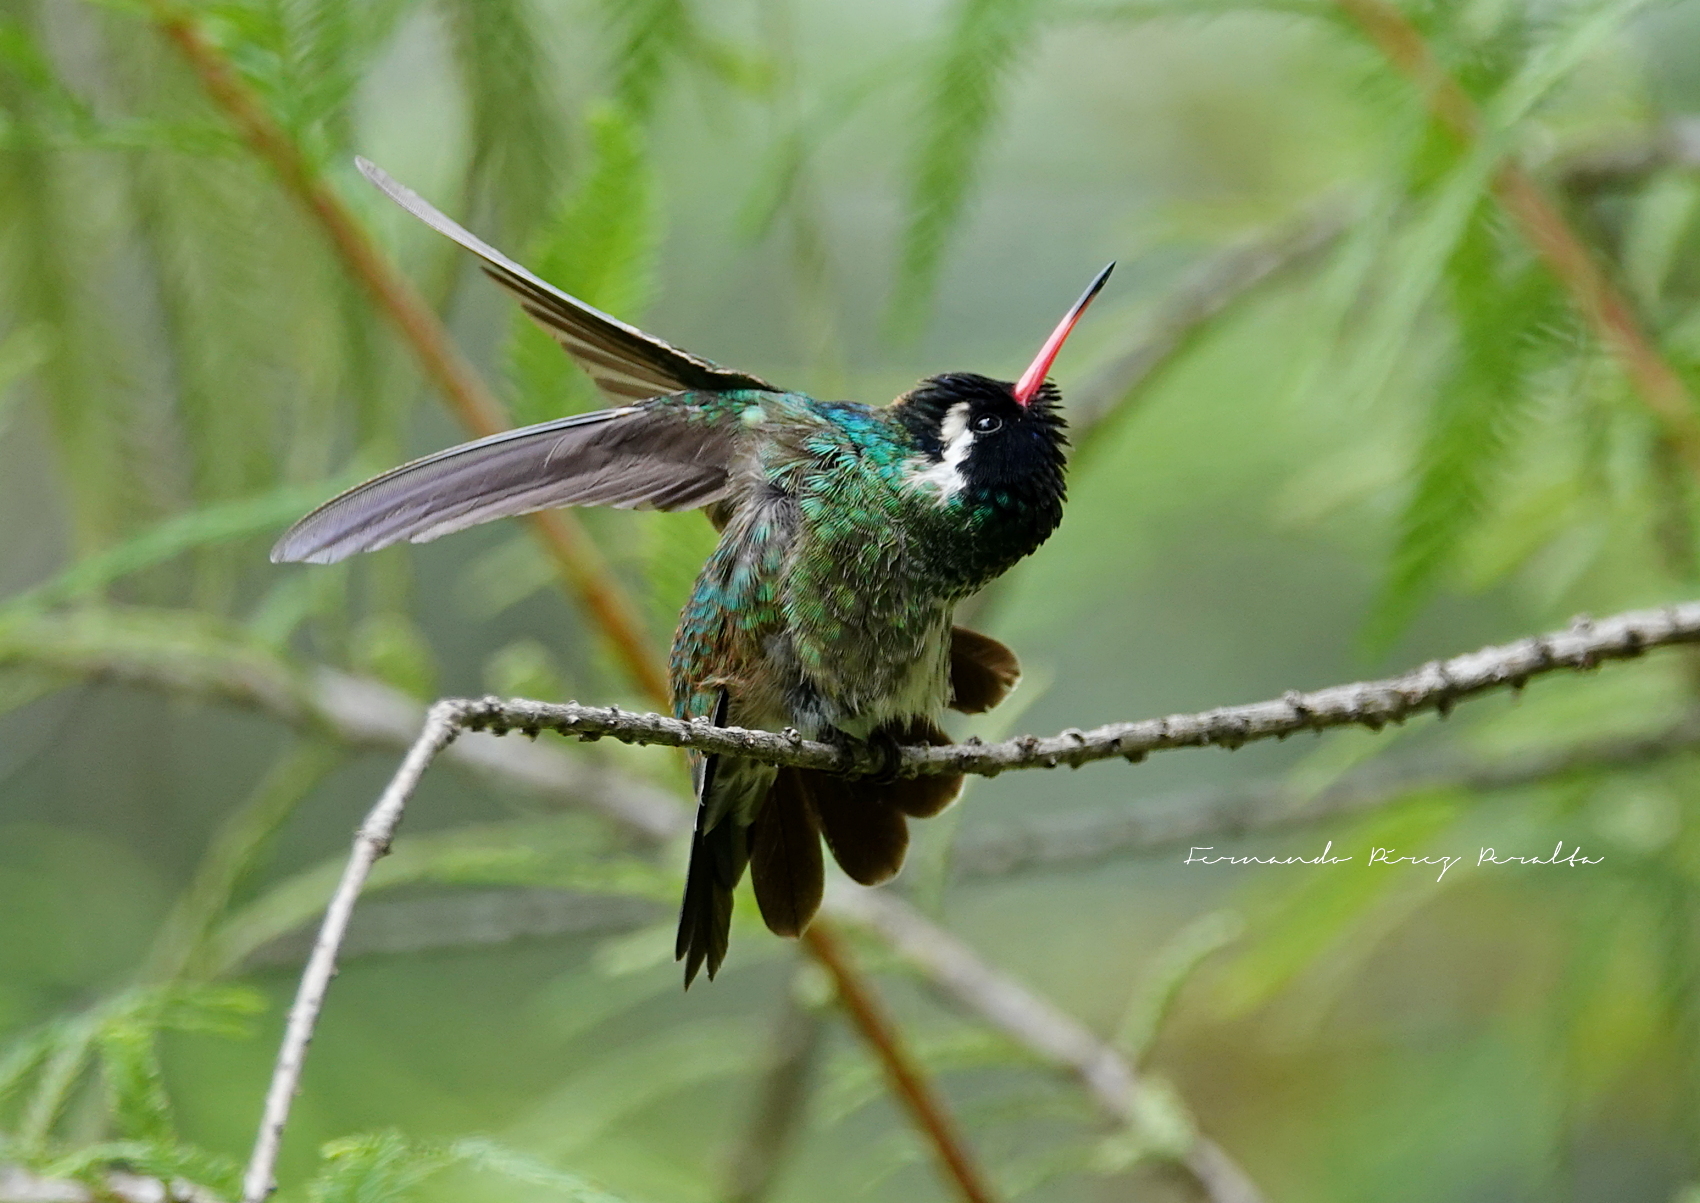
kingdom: Animalia
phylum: Chordata
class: Aves
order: Apodiformes
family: Trochilidae
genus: Basilinna
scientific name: Basilinna leucotis
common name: White-eared hummingbird
